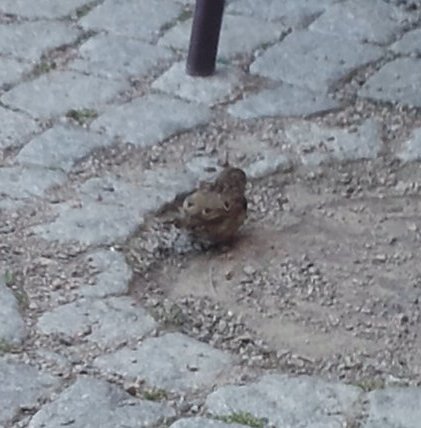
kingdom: Animalia
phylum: Chordata
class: Aves
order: Passeriformes
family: Passeridae
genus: Passer
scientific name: Passer domesticus
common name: House sparrow
